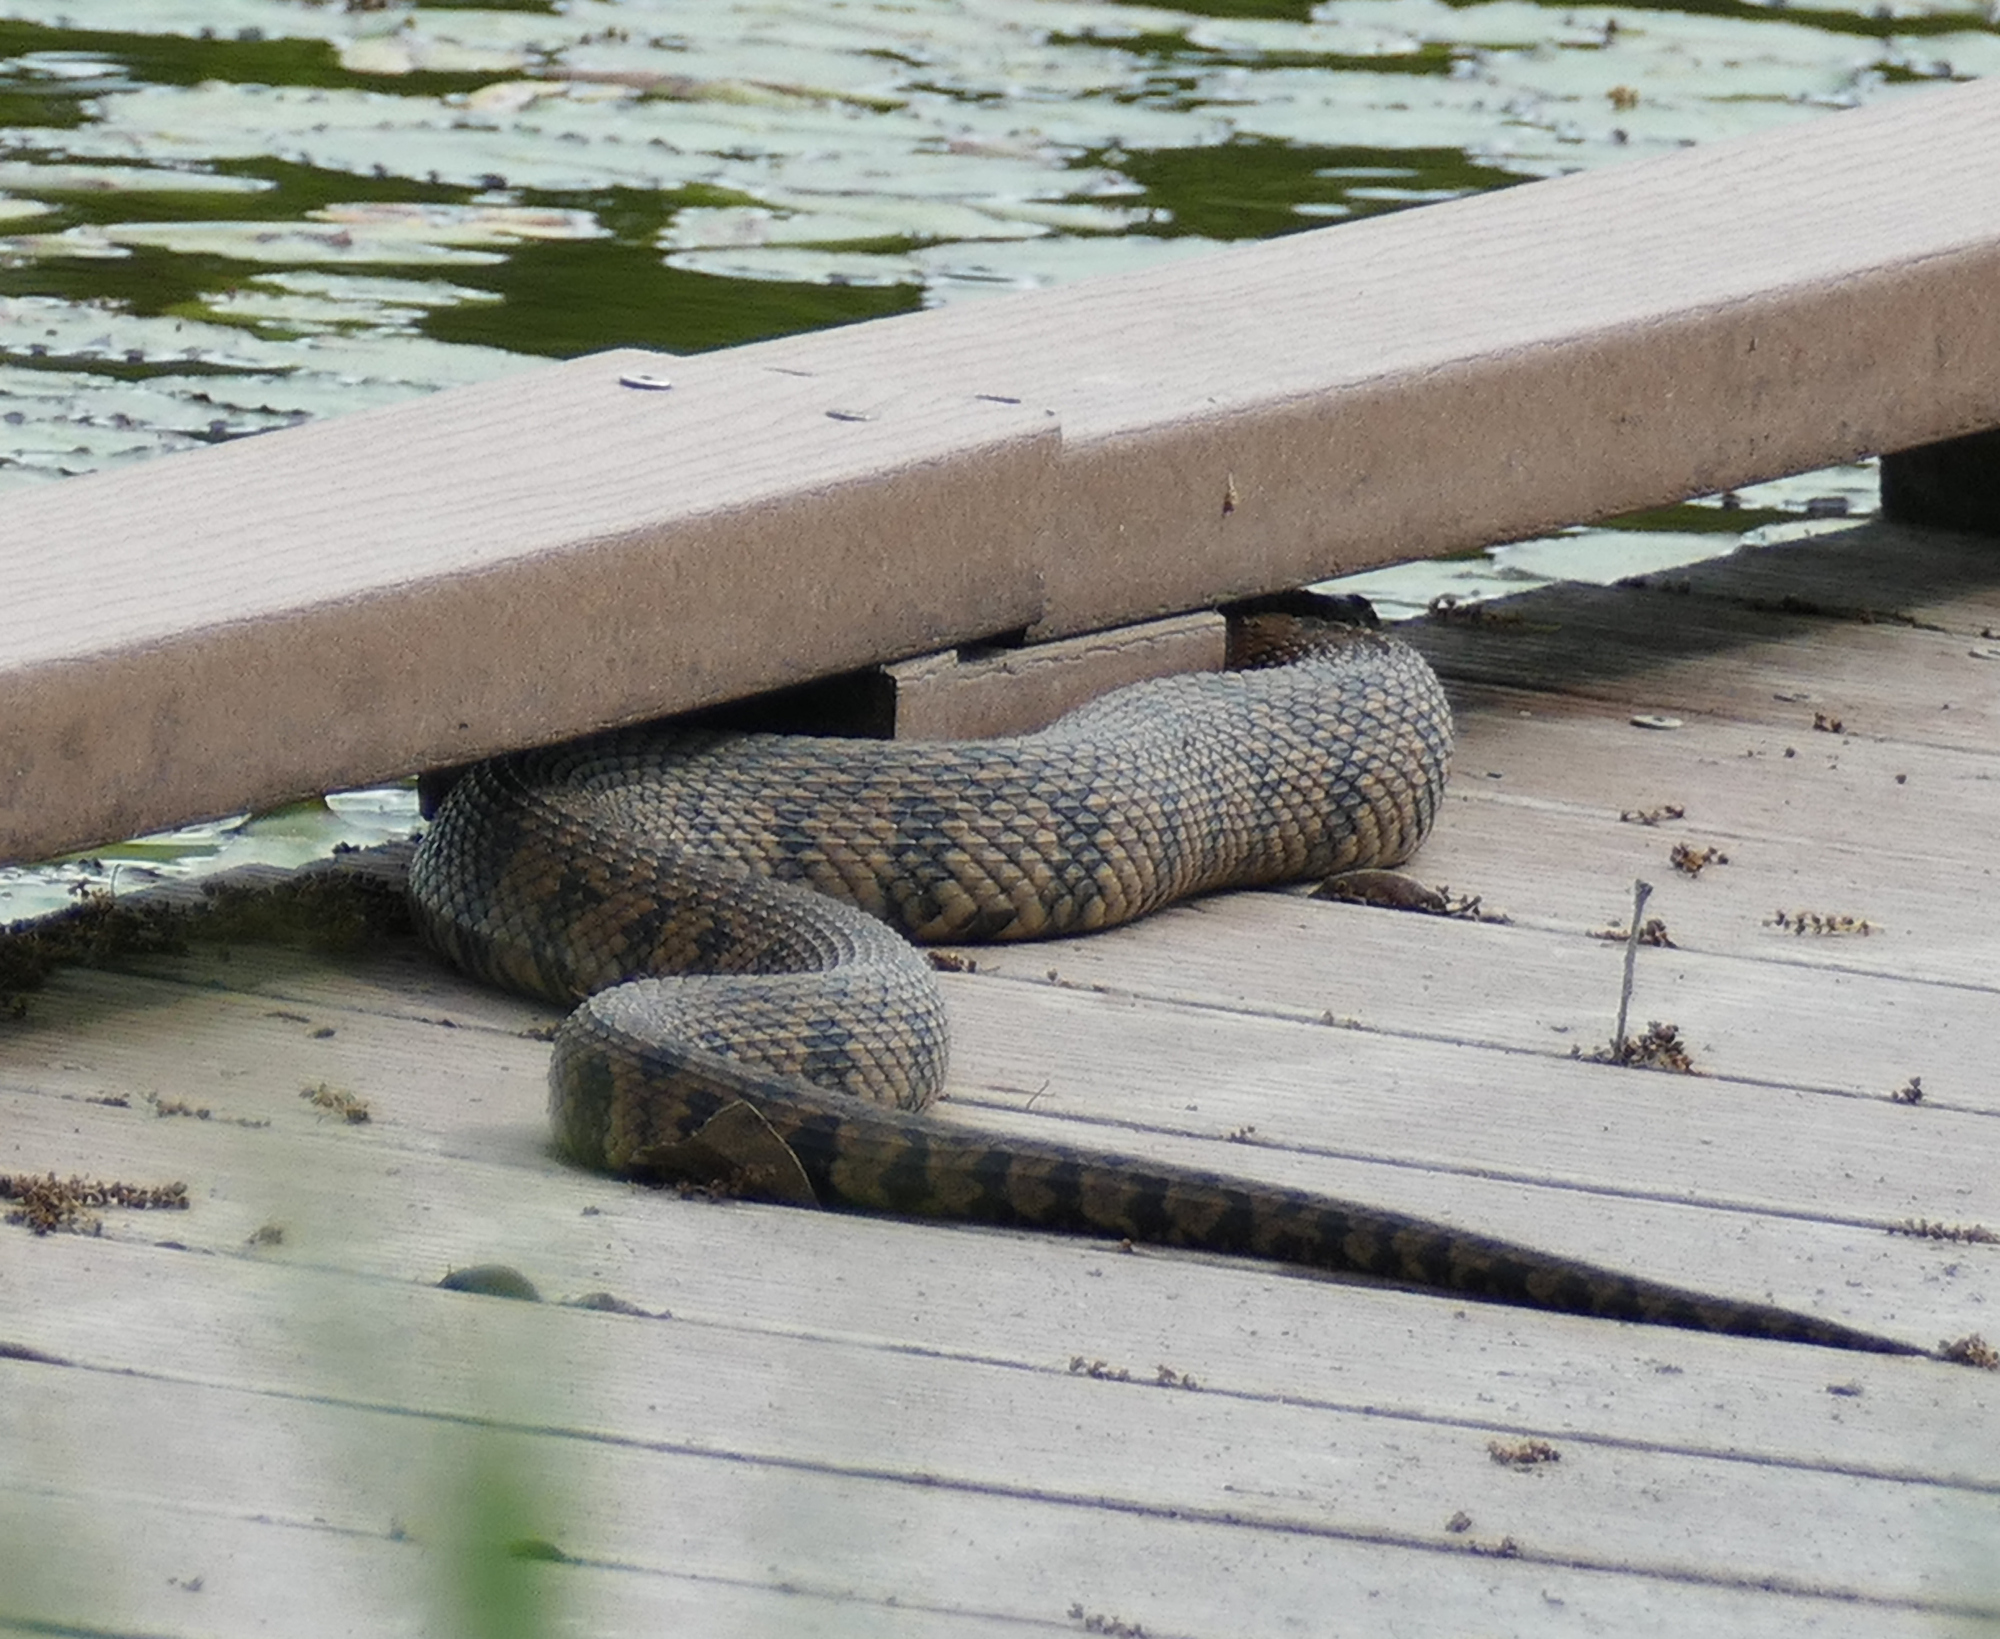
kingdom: Animalia
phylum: Chordata
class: Squamata
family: Colubridae
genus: Nerodia
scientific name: Nerodia rhombifer
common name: Diamondback water snake
